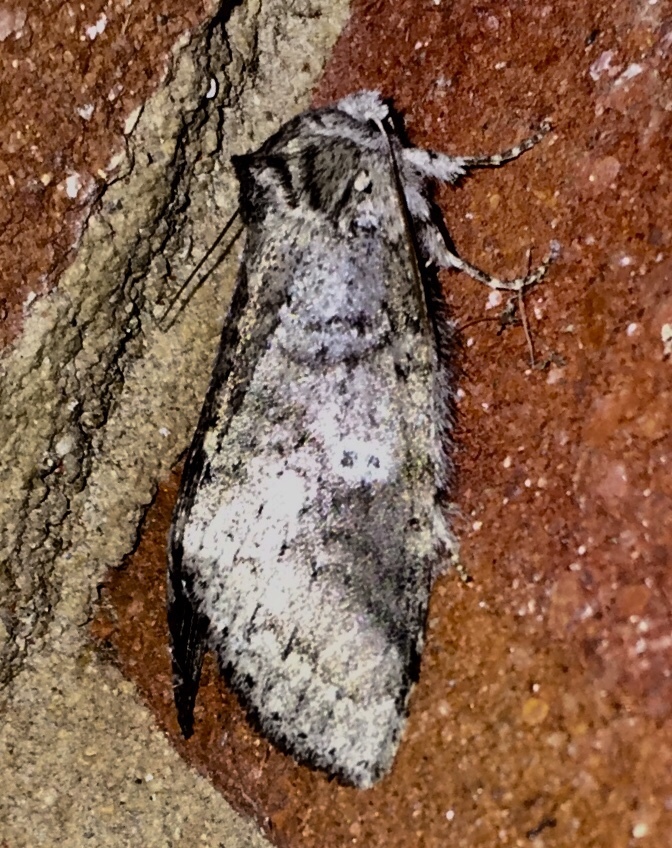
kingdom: Animalia
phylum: Arthropoda
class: Insecta
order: Lepidoptera
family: Notodontidae
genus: Lochmaeus
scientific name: Lochmaeus manteo
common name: Variable oakleaf caterpillar moth
